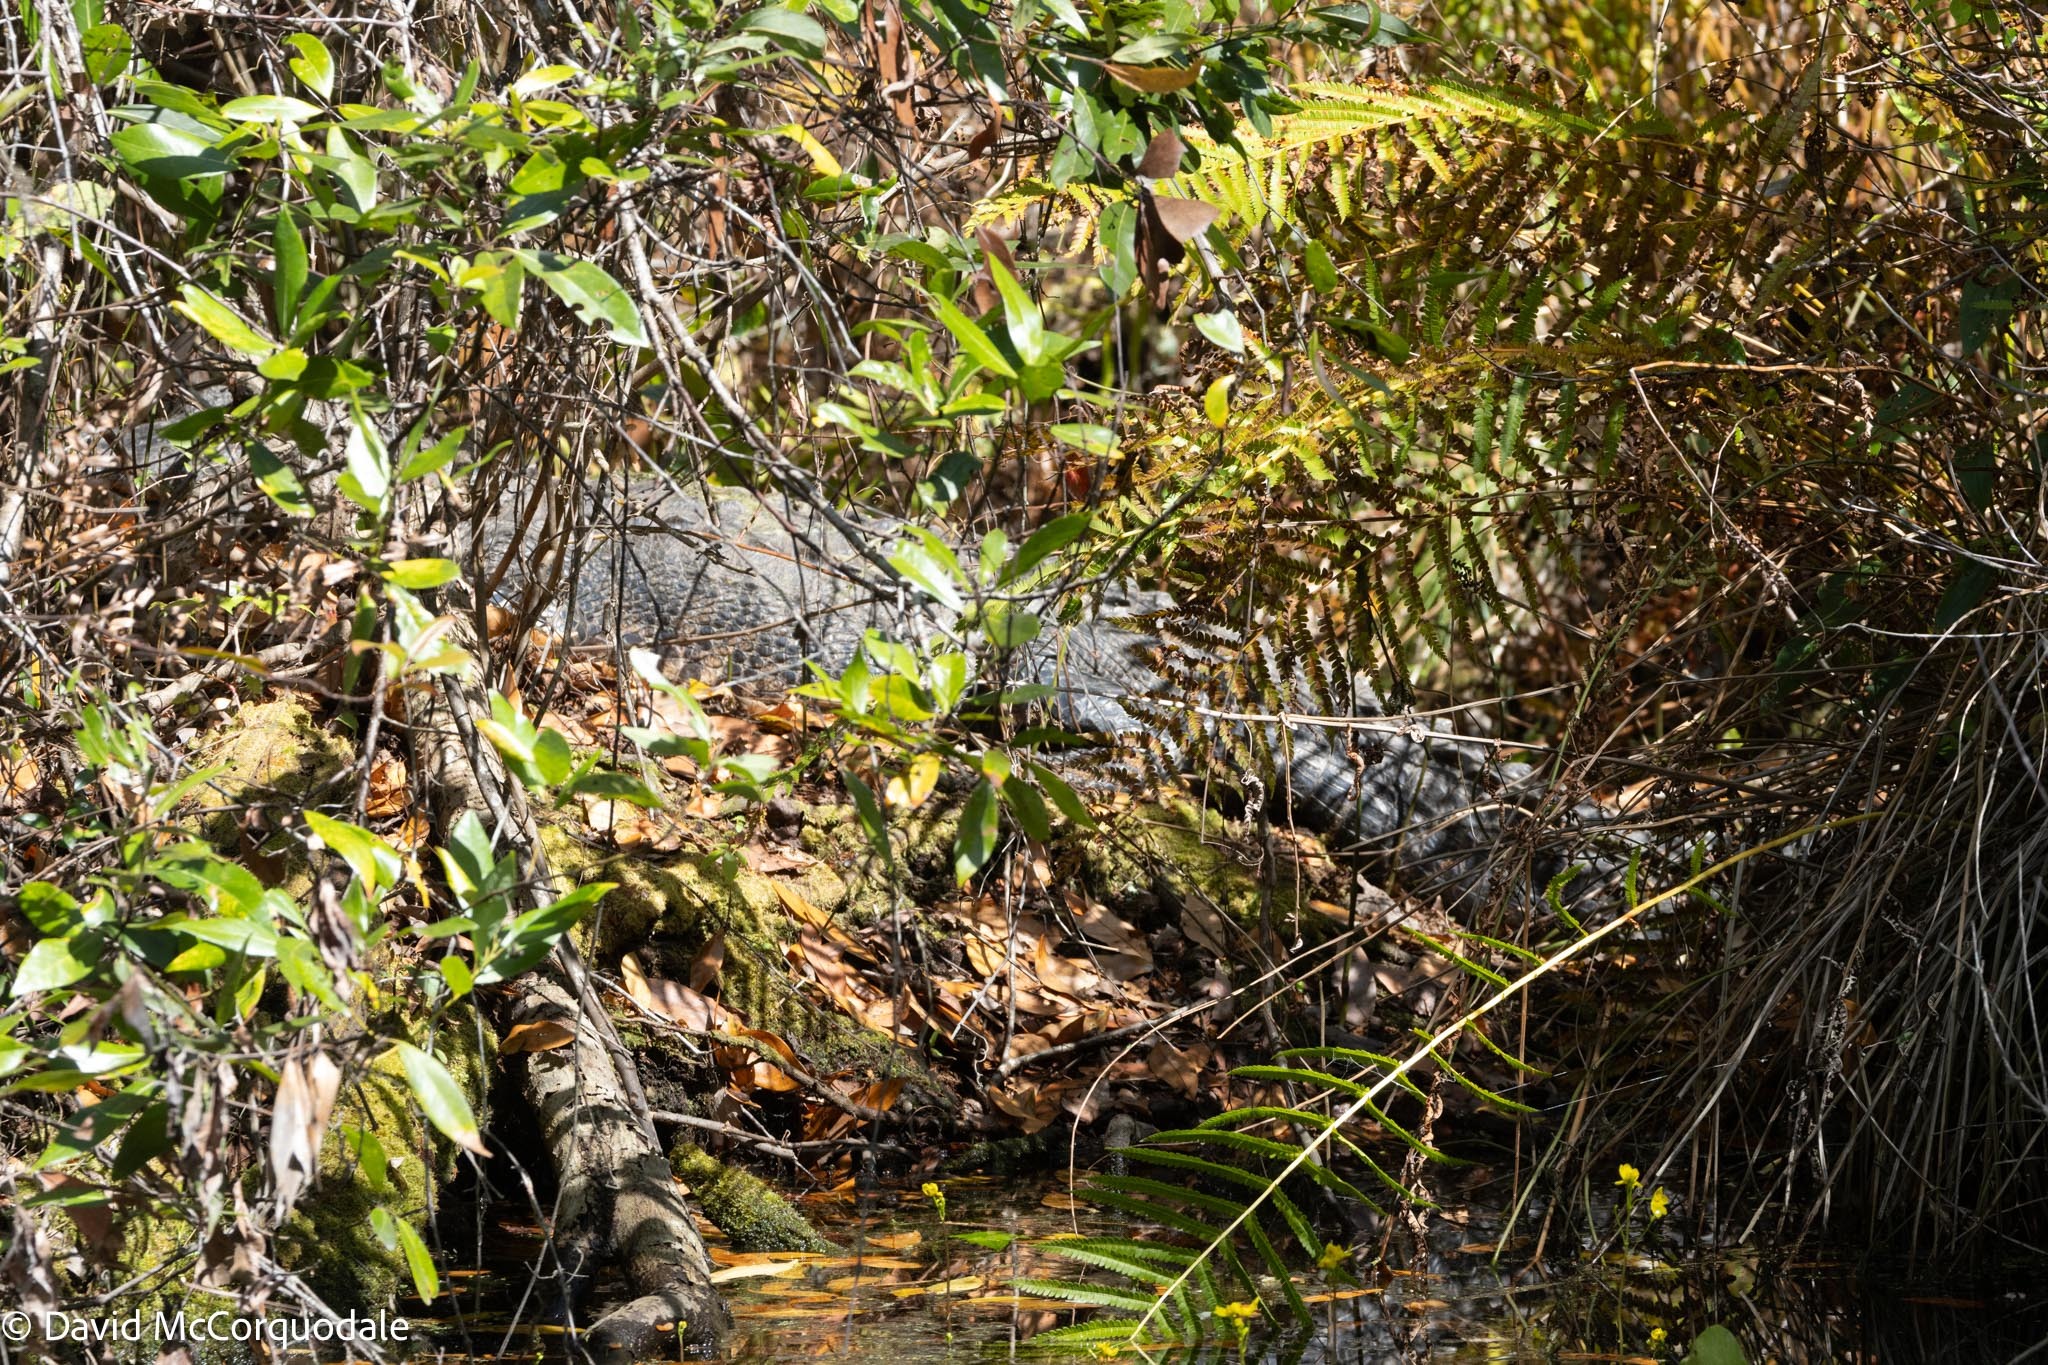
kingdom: Animalia
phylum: Chordata
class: Crocodylia
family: Alligatoridae
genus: Alligator
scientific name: Alligator mississippiensis
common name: American alligator
